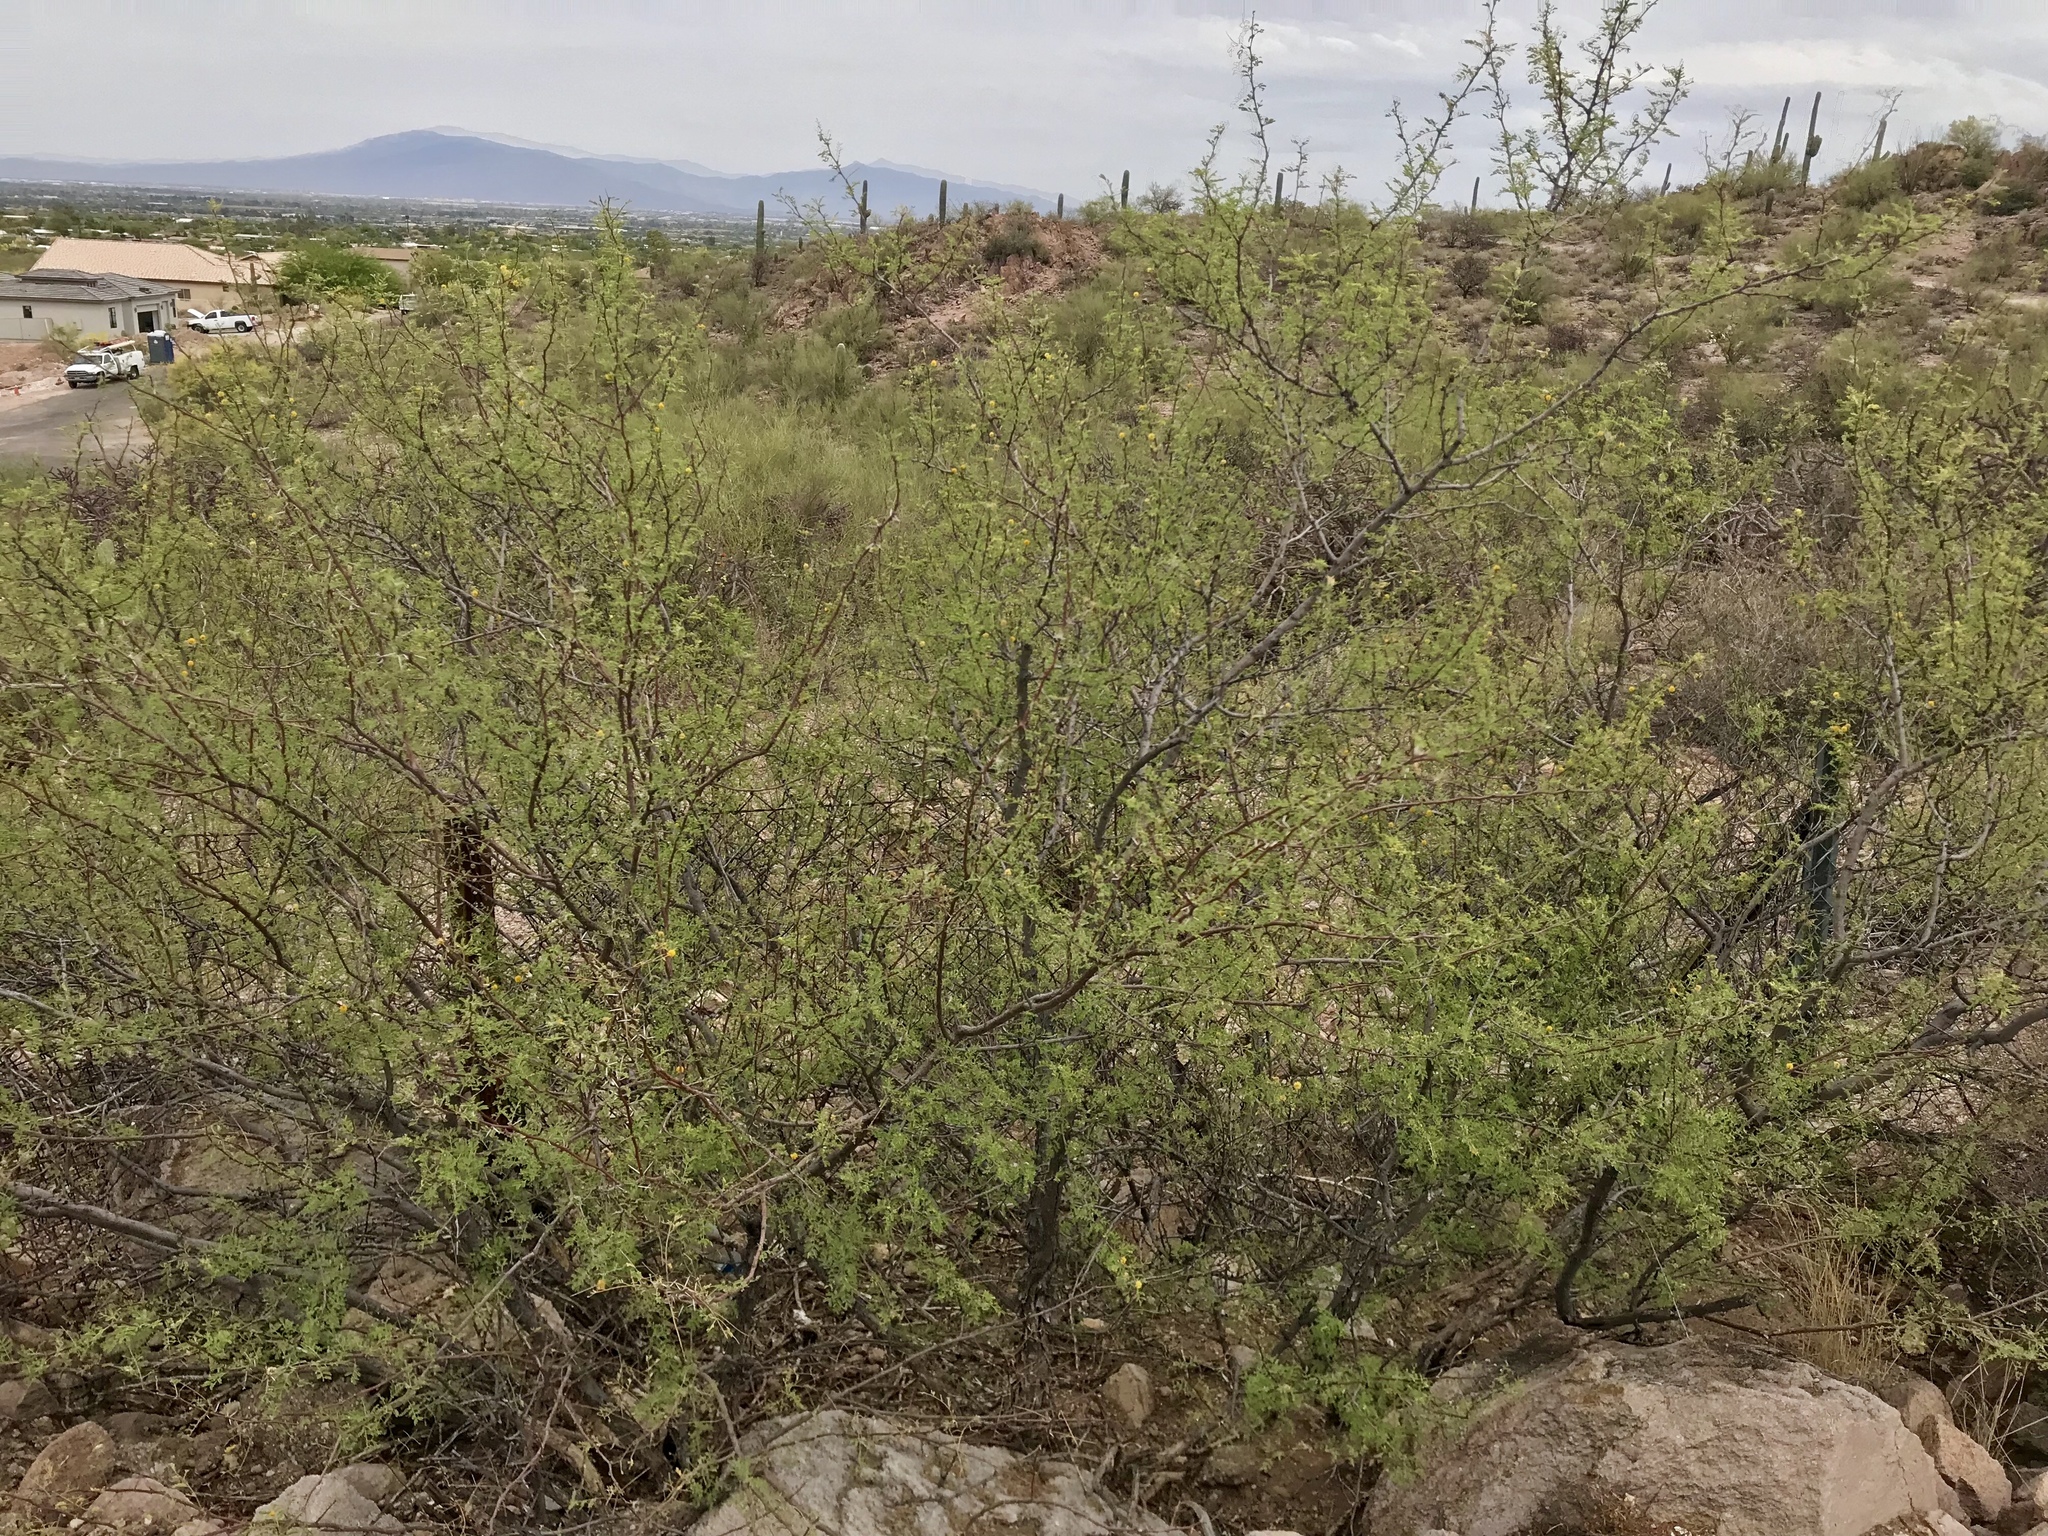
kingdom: Plantae
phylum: Tracheophyta
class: Magnoliopsida
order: Fabales
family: Fabaceae
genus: Vachellia
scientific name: Vachellia constricta
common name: Mescat acacia
